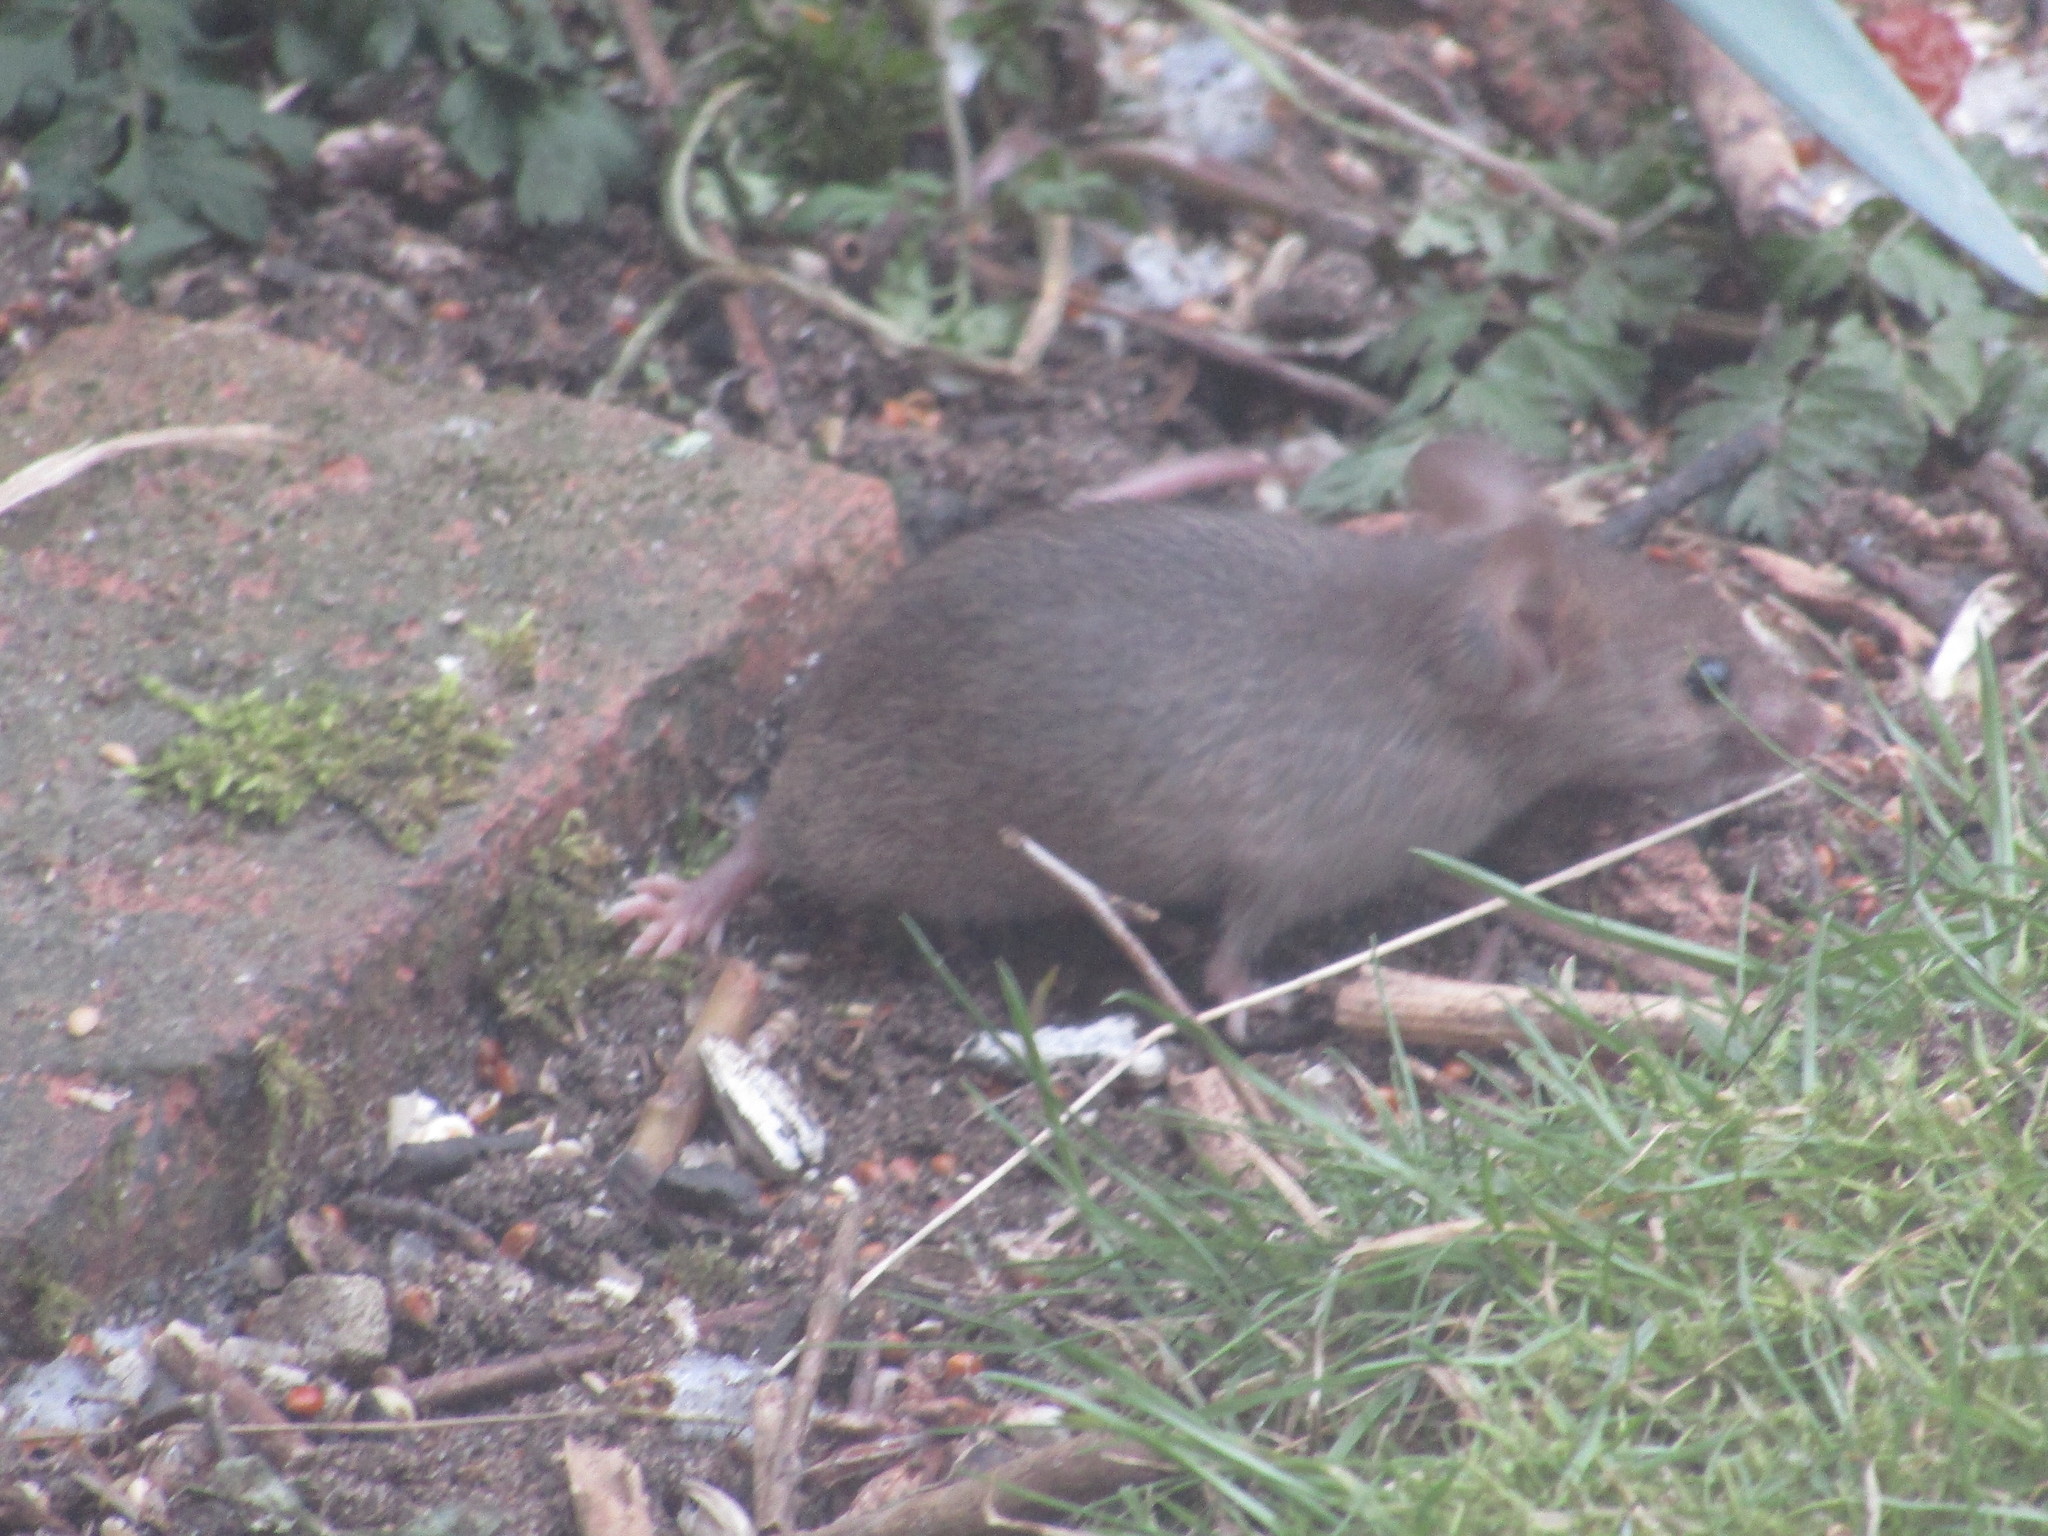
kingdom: Animalia
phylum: Chordata
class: Mammalia
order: Rodentia
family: Muridae
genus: Mus
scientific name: Mus musculus
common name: House mouse
